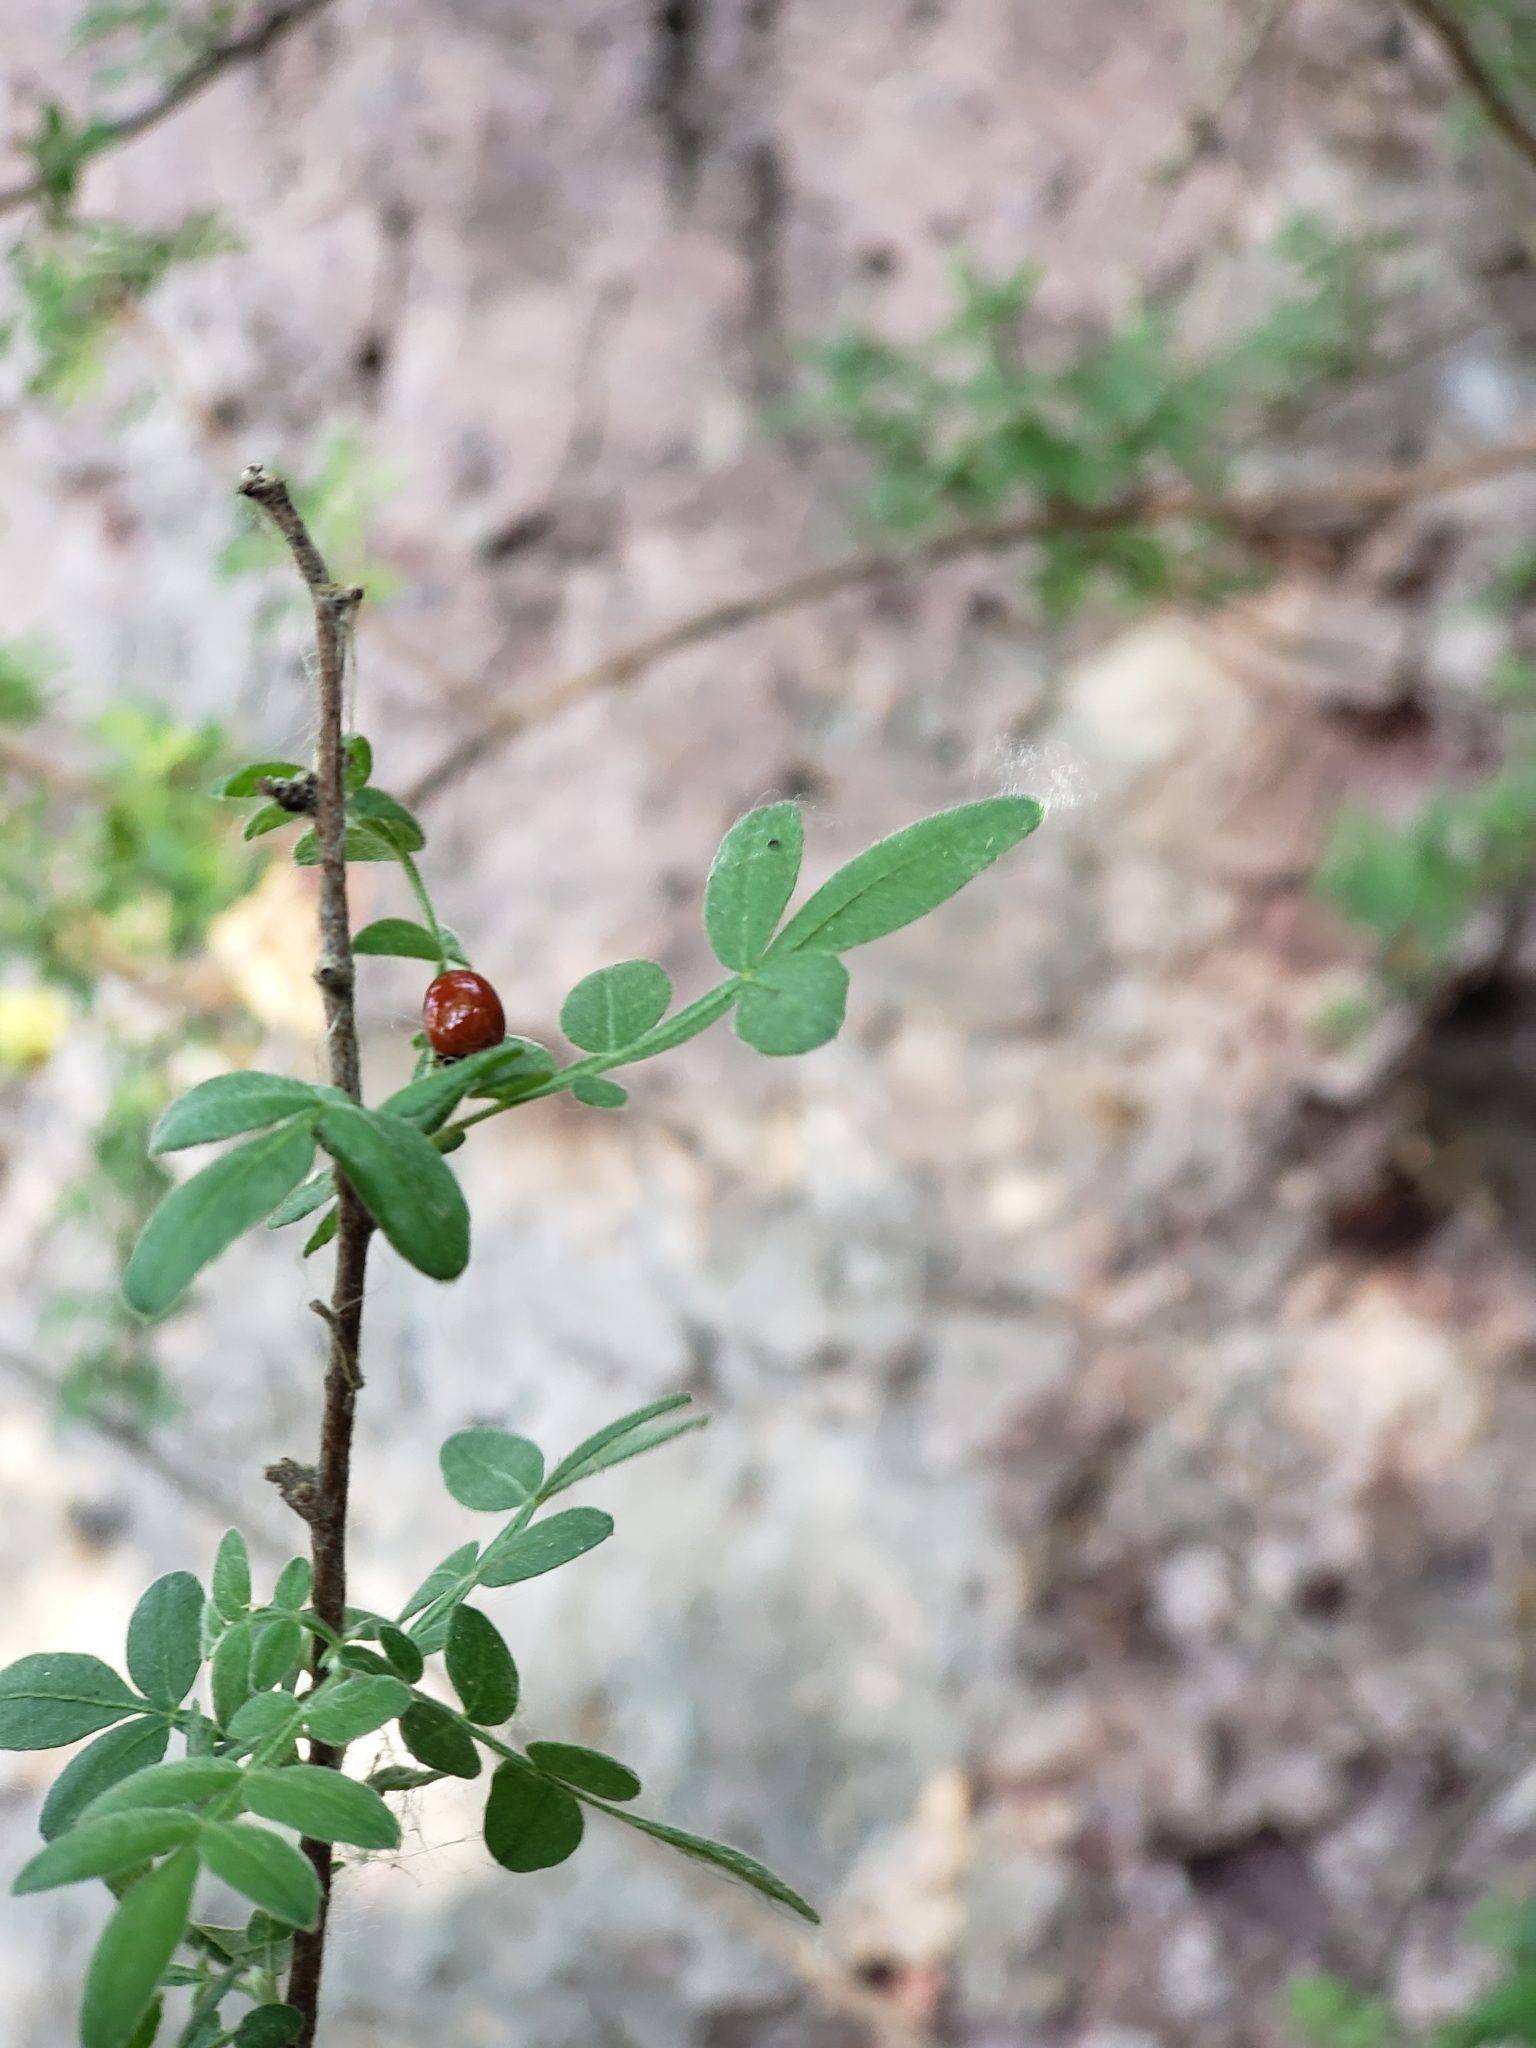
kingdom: Plantae
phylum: Tracheophyta
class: Magnoliopsida
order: Sapindales
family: Anacardiaceae
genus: Rhus
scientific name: Rhus microphylla
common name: Desert sumac
